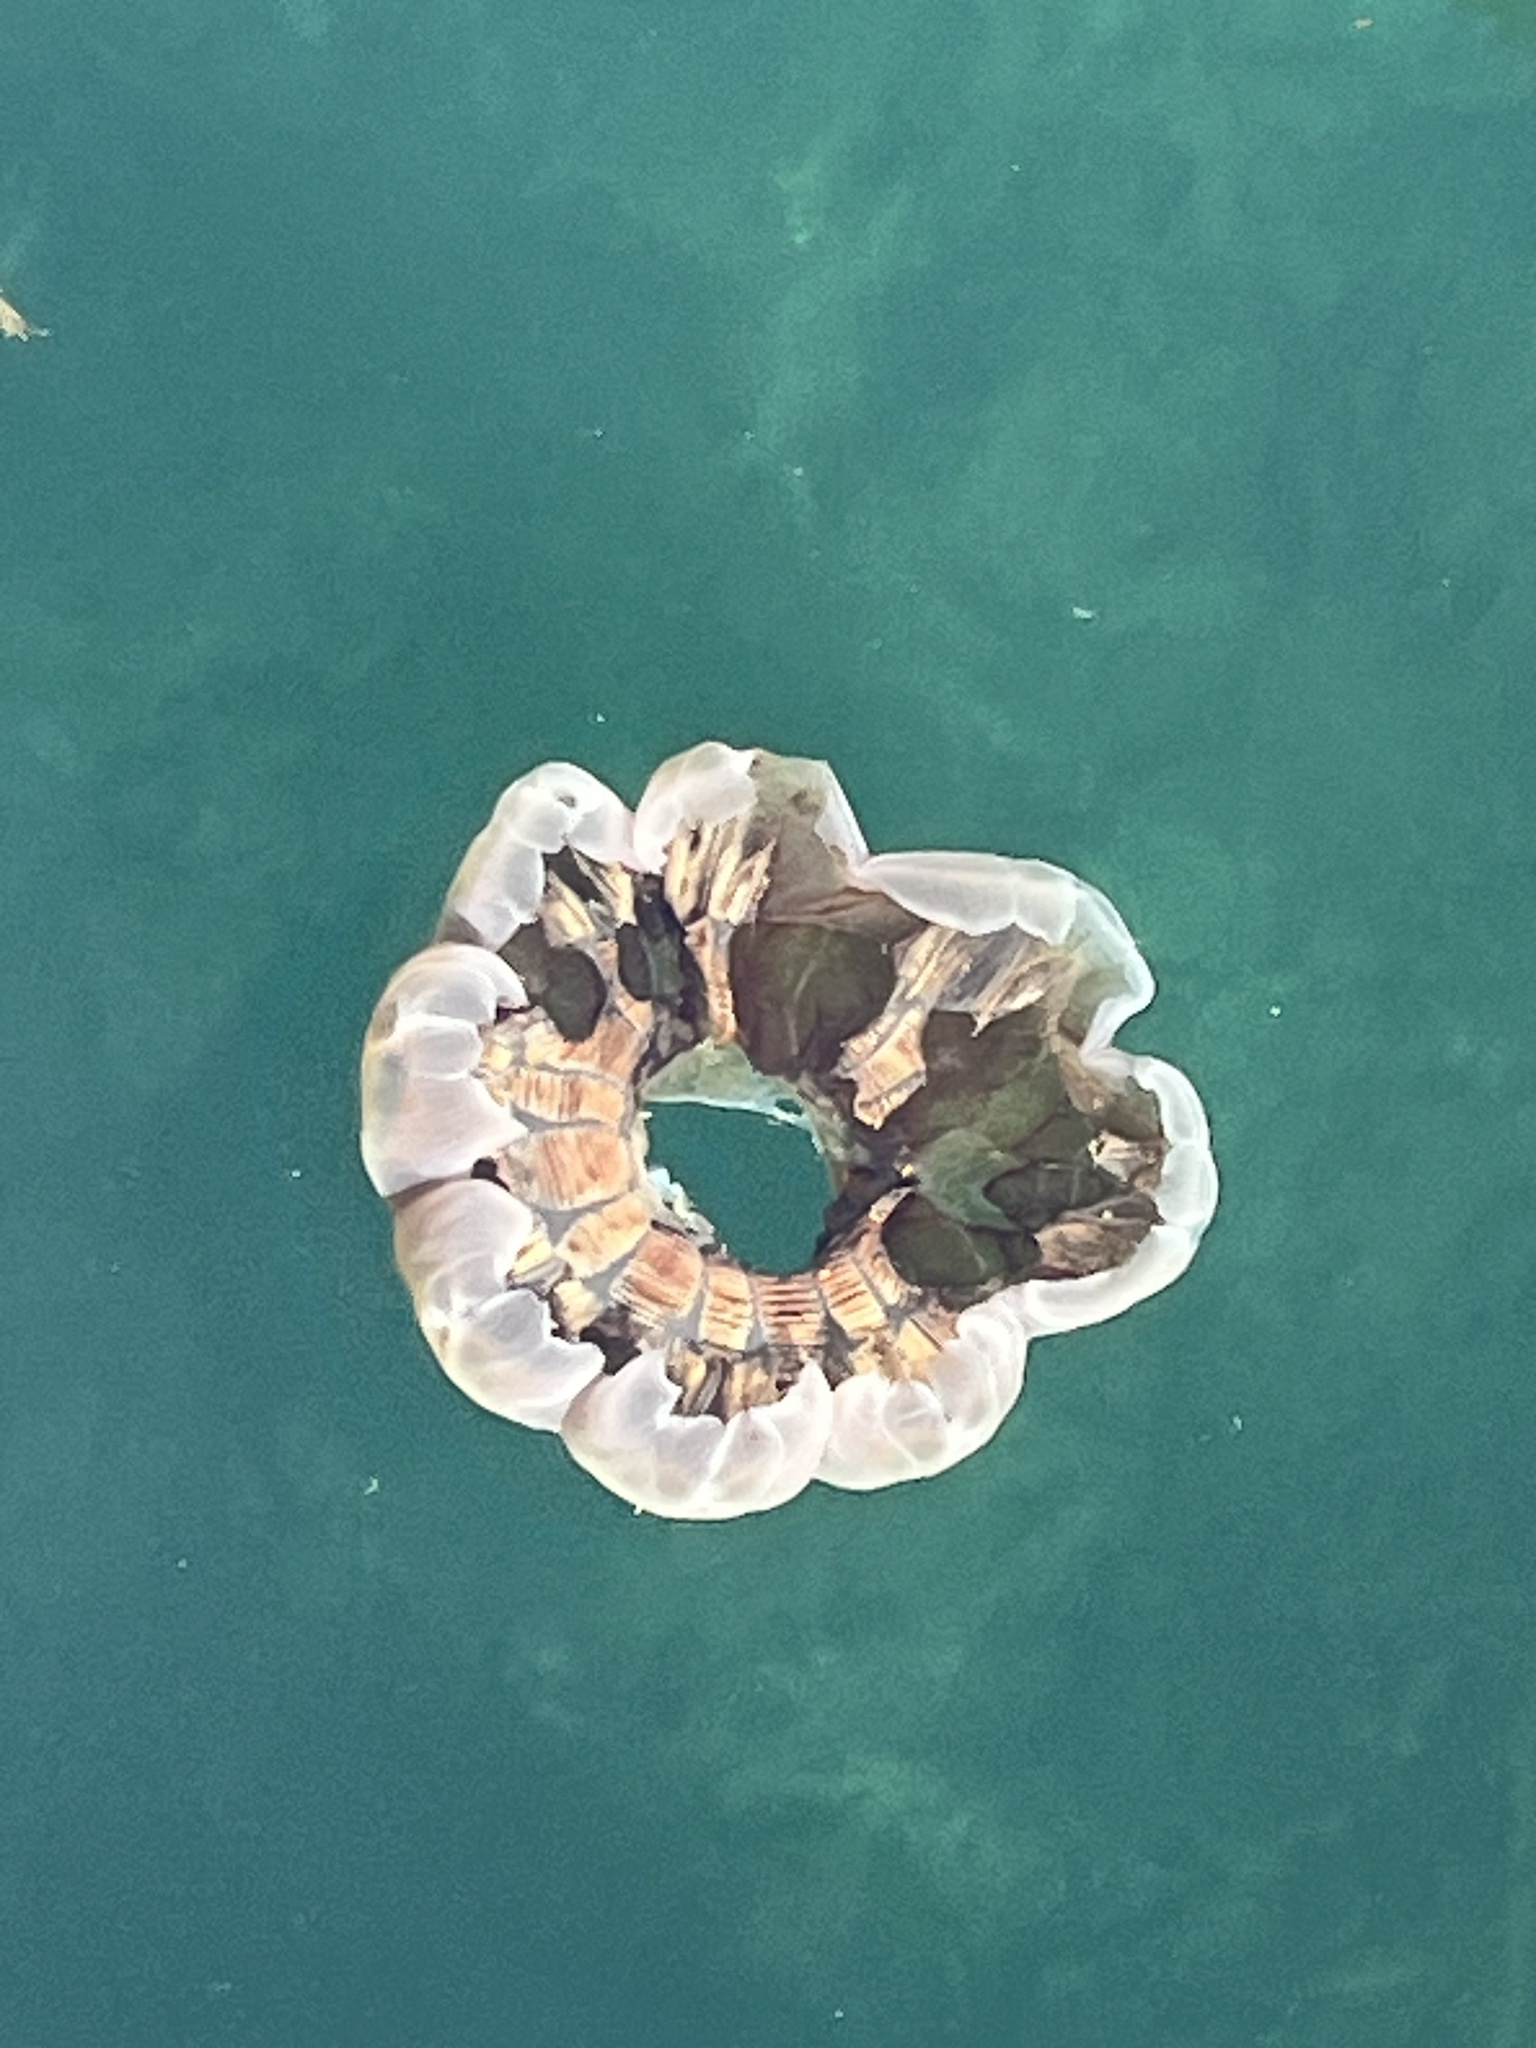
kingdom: Animalia
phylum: Cnidaria
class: Scyphozoa
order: Semaeostomeae
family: Cyaneidae
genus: Cyanea
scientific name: Cyanea ferruginea
